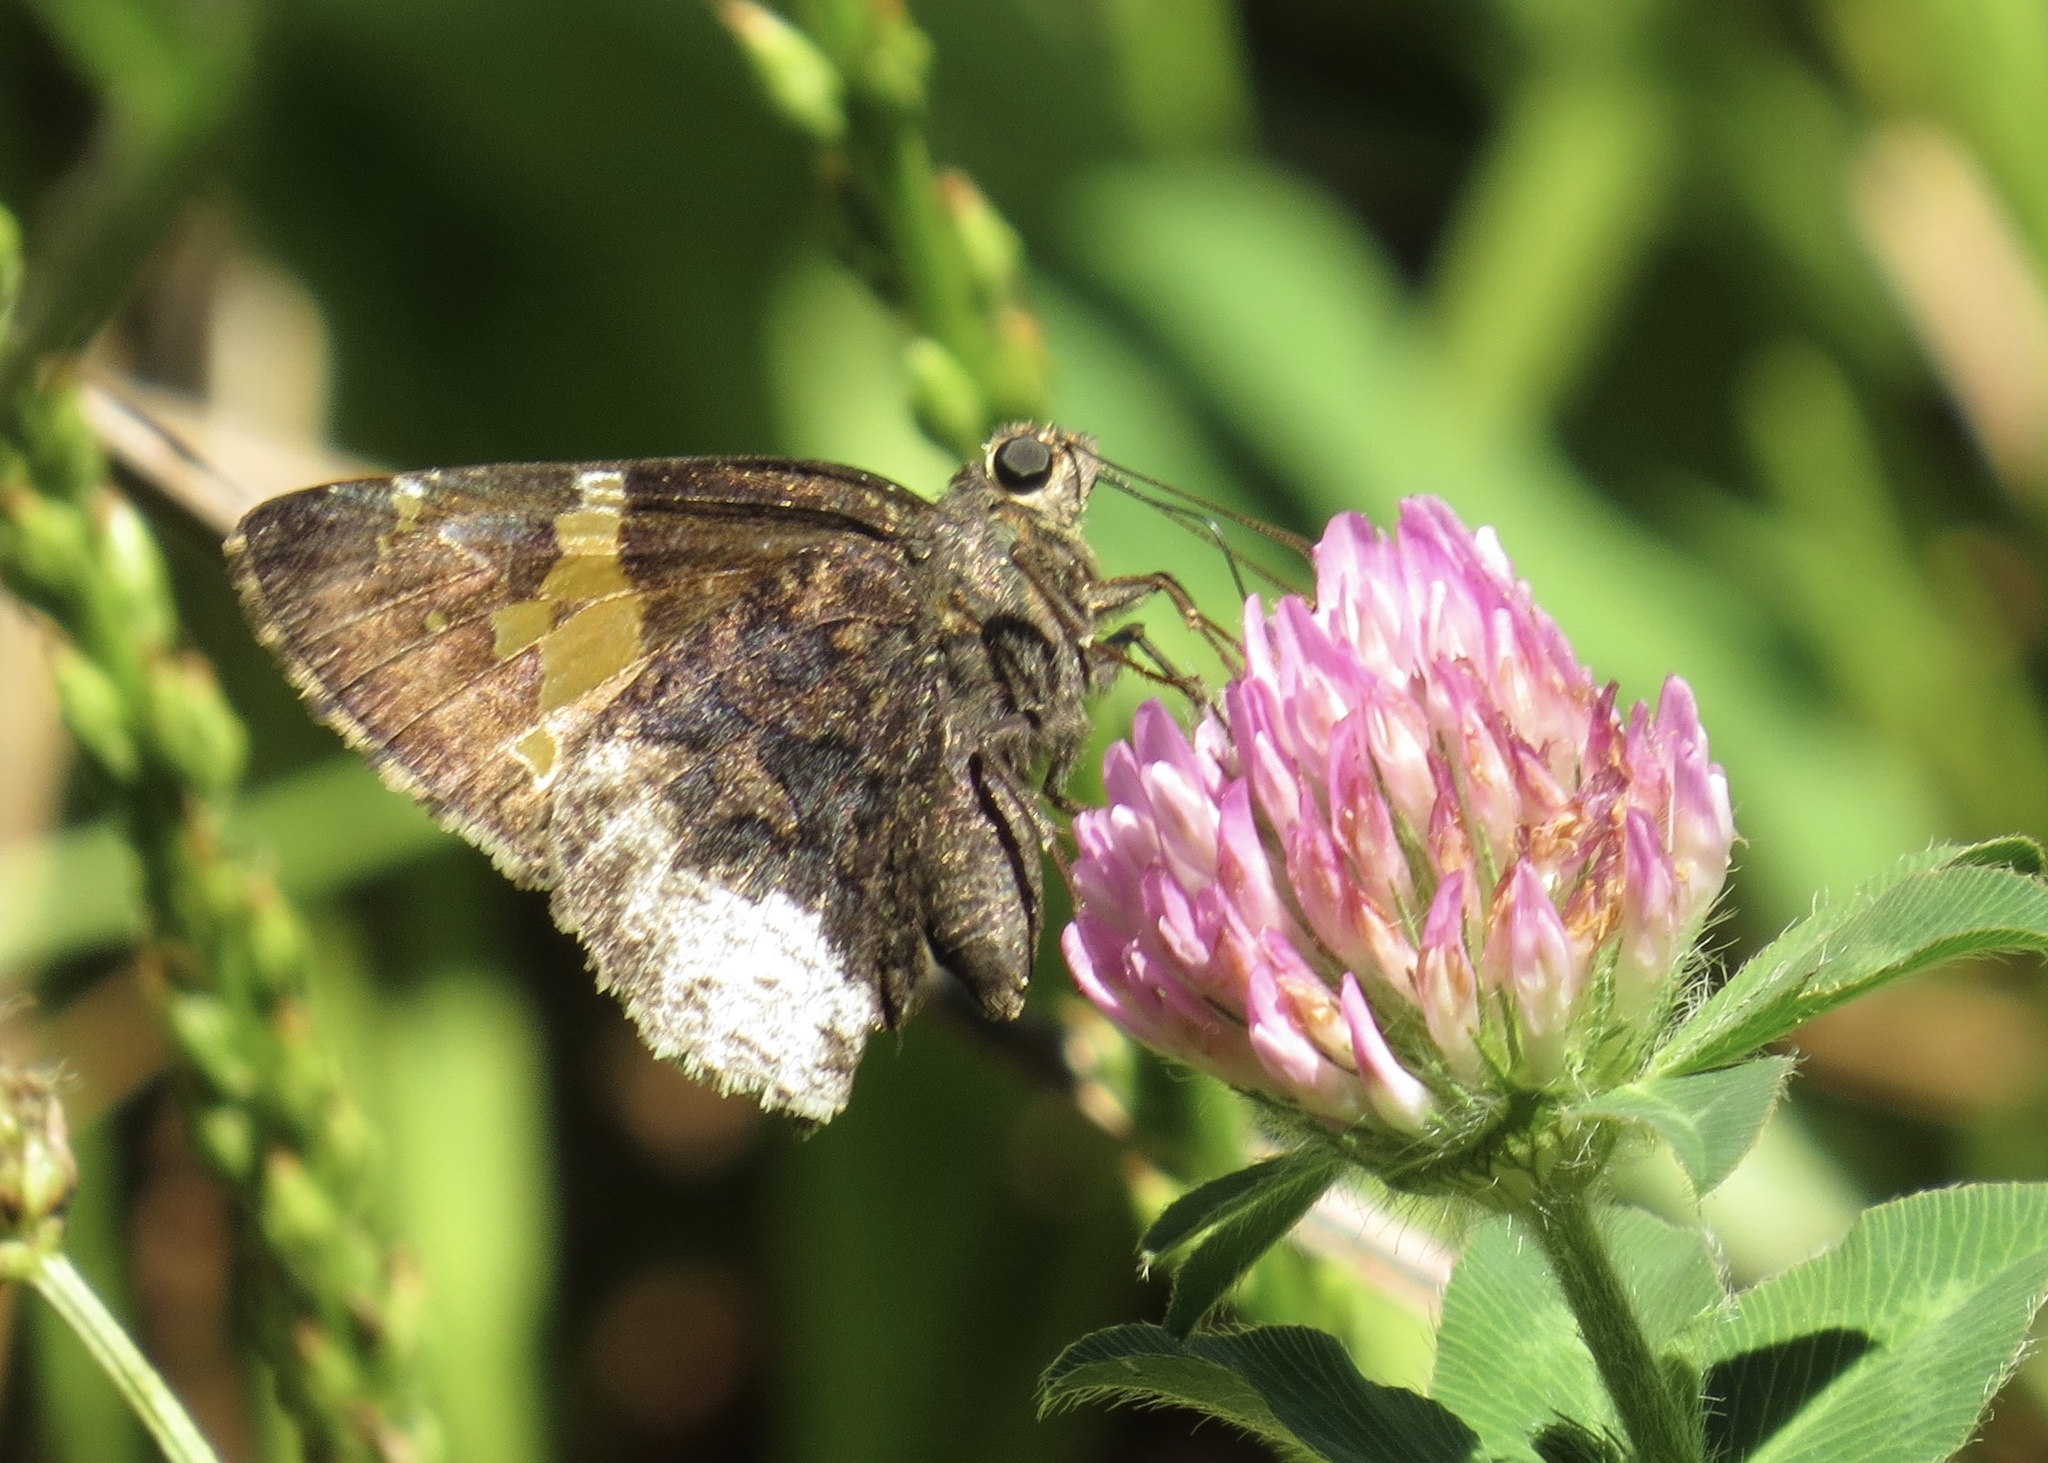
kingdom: Animalia
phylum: Arthropoda
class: Insecta
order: Lepidoptera
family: Hesperiidae
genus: Thorybes
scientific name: Thorybes lyciades
